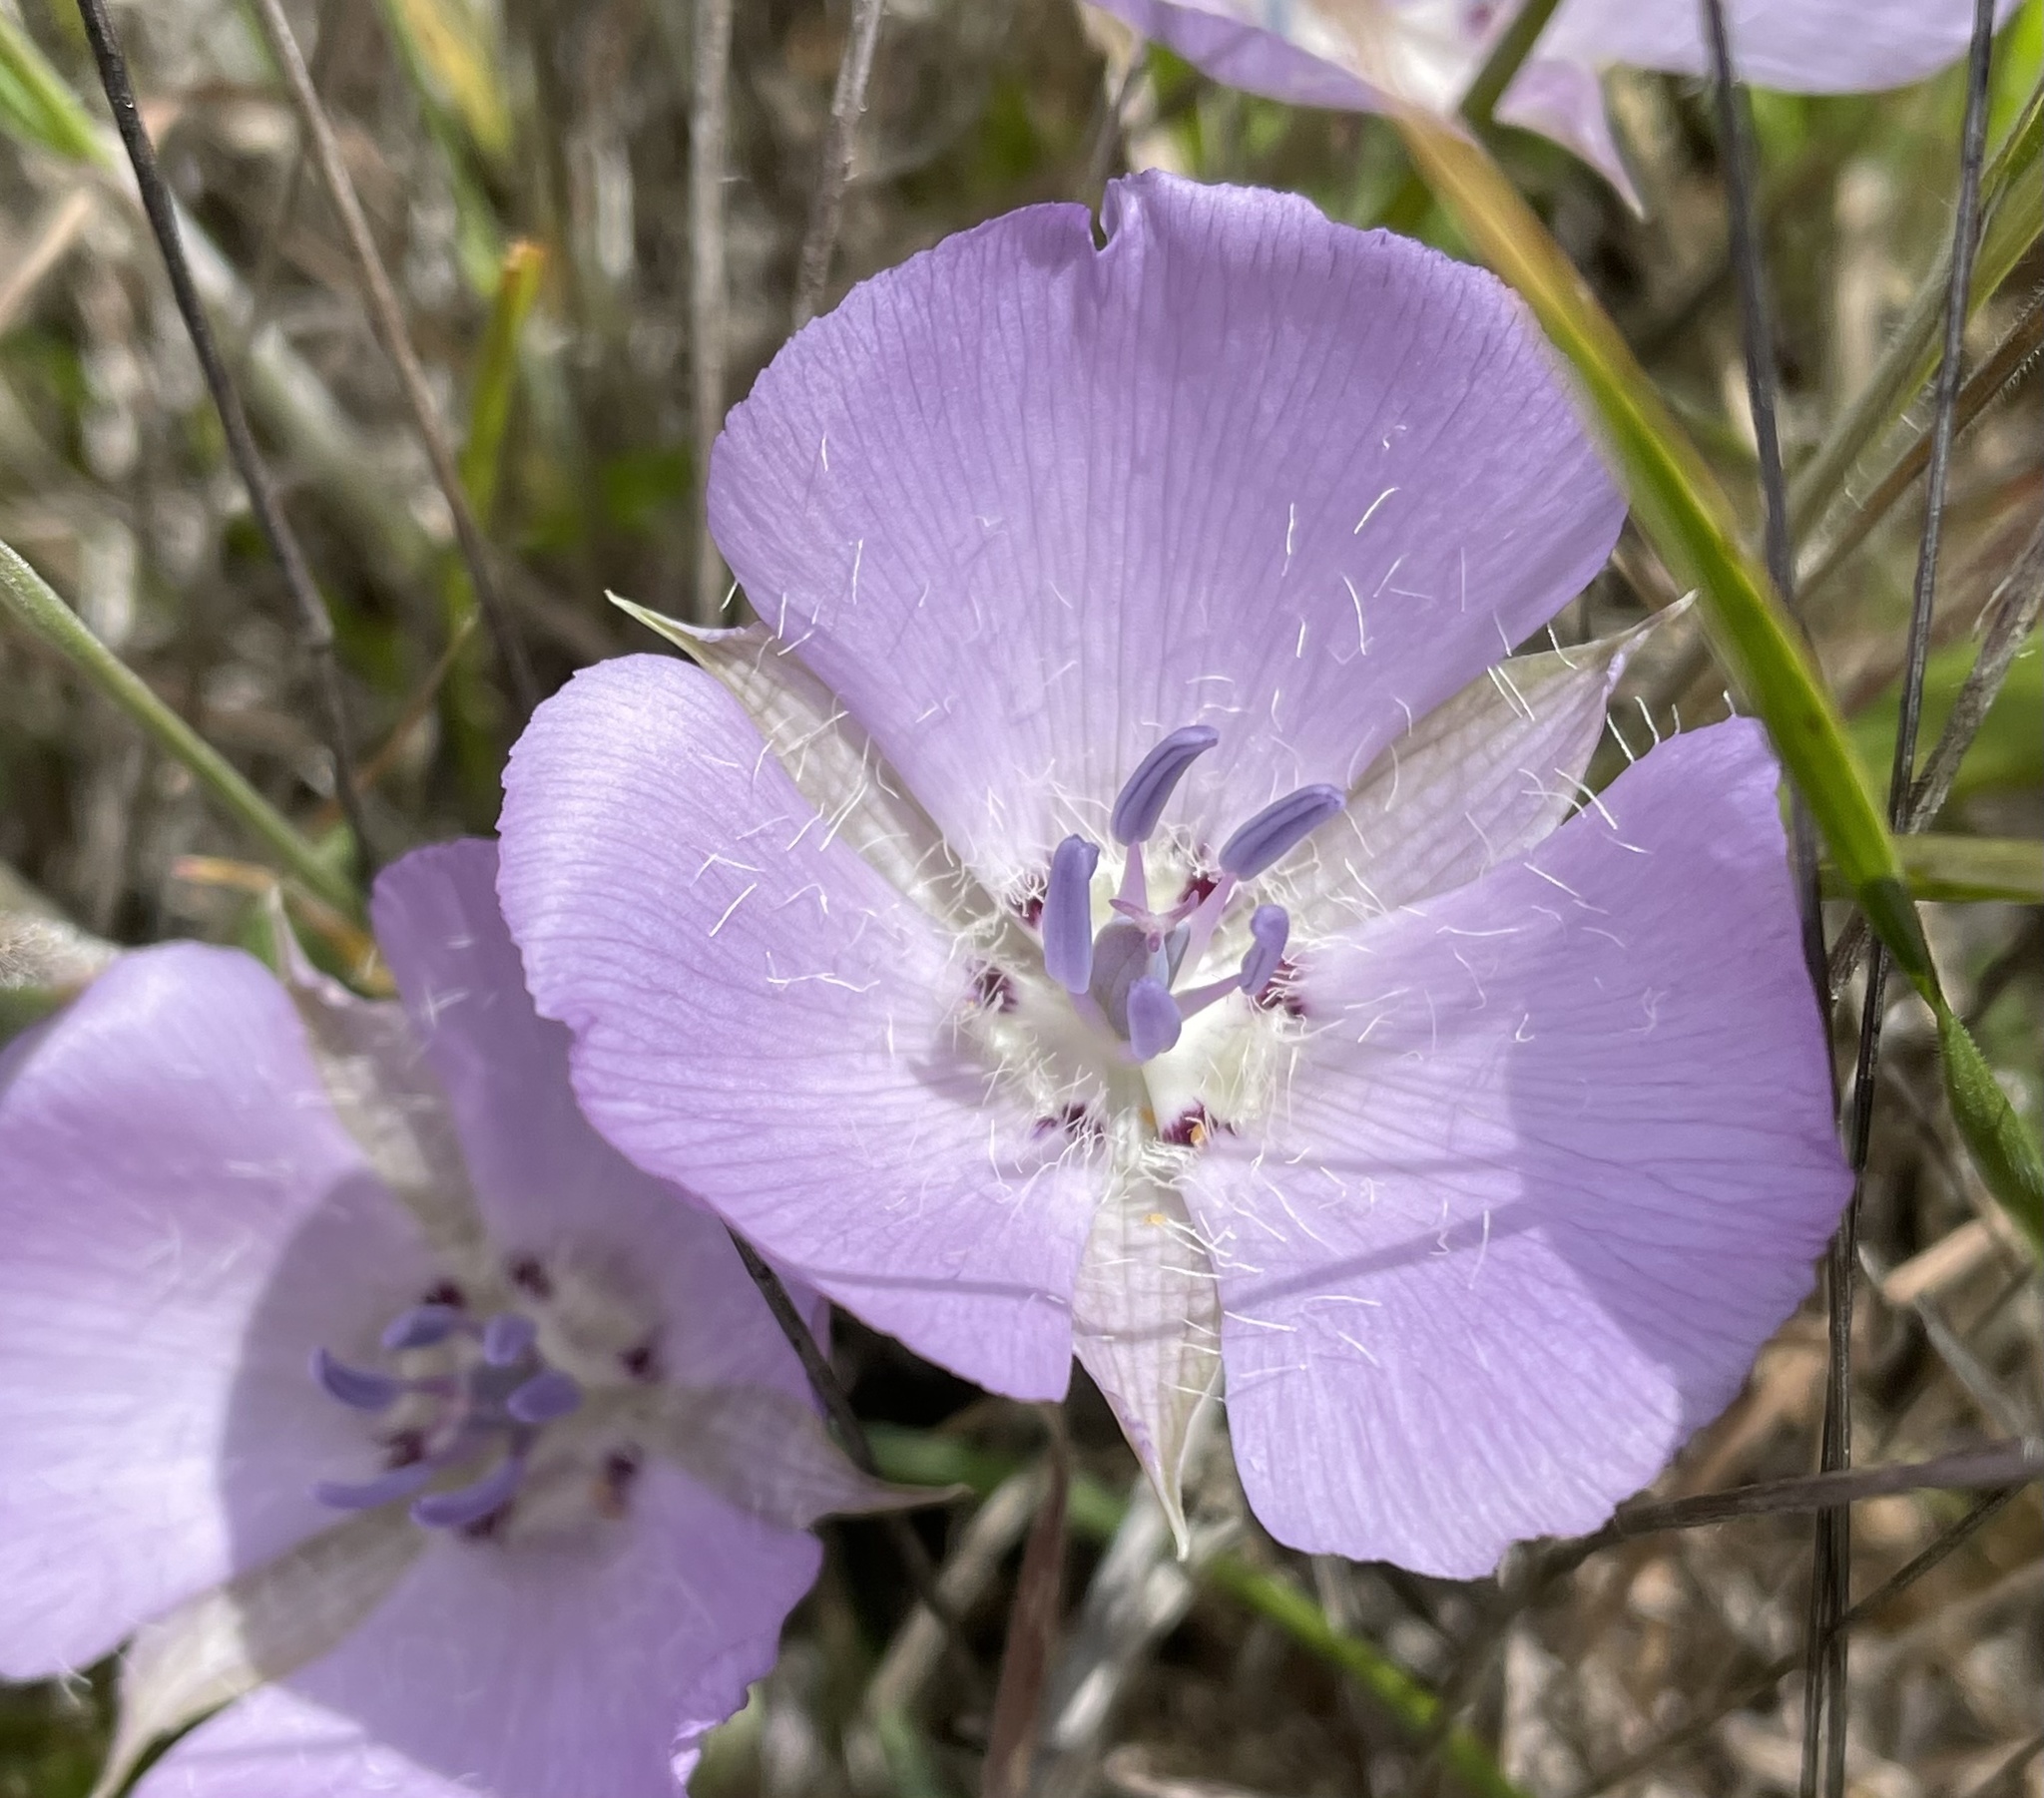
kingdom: Plantae
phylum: Tracheophyta
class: Liliopsida
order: Liliales
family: Liliaceae
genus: Calochortus
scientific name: Calochortus uniflorus
